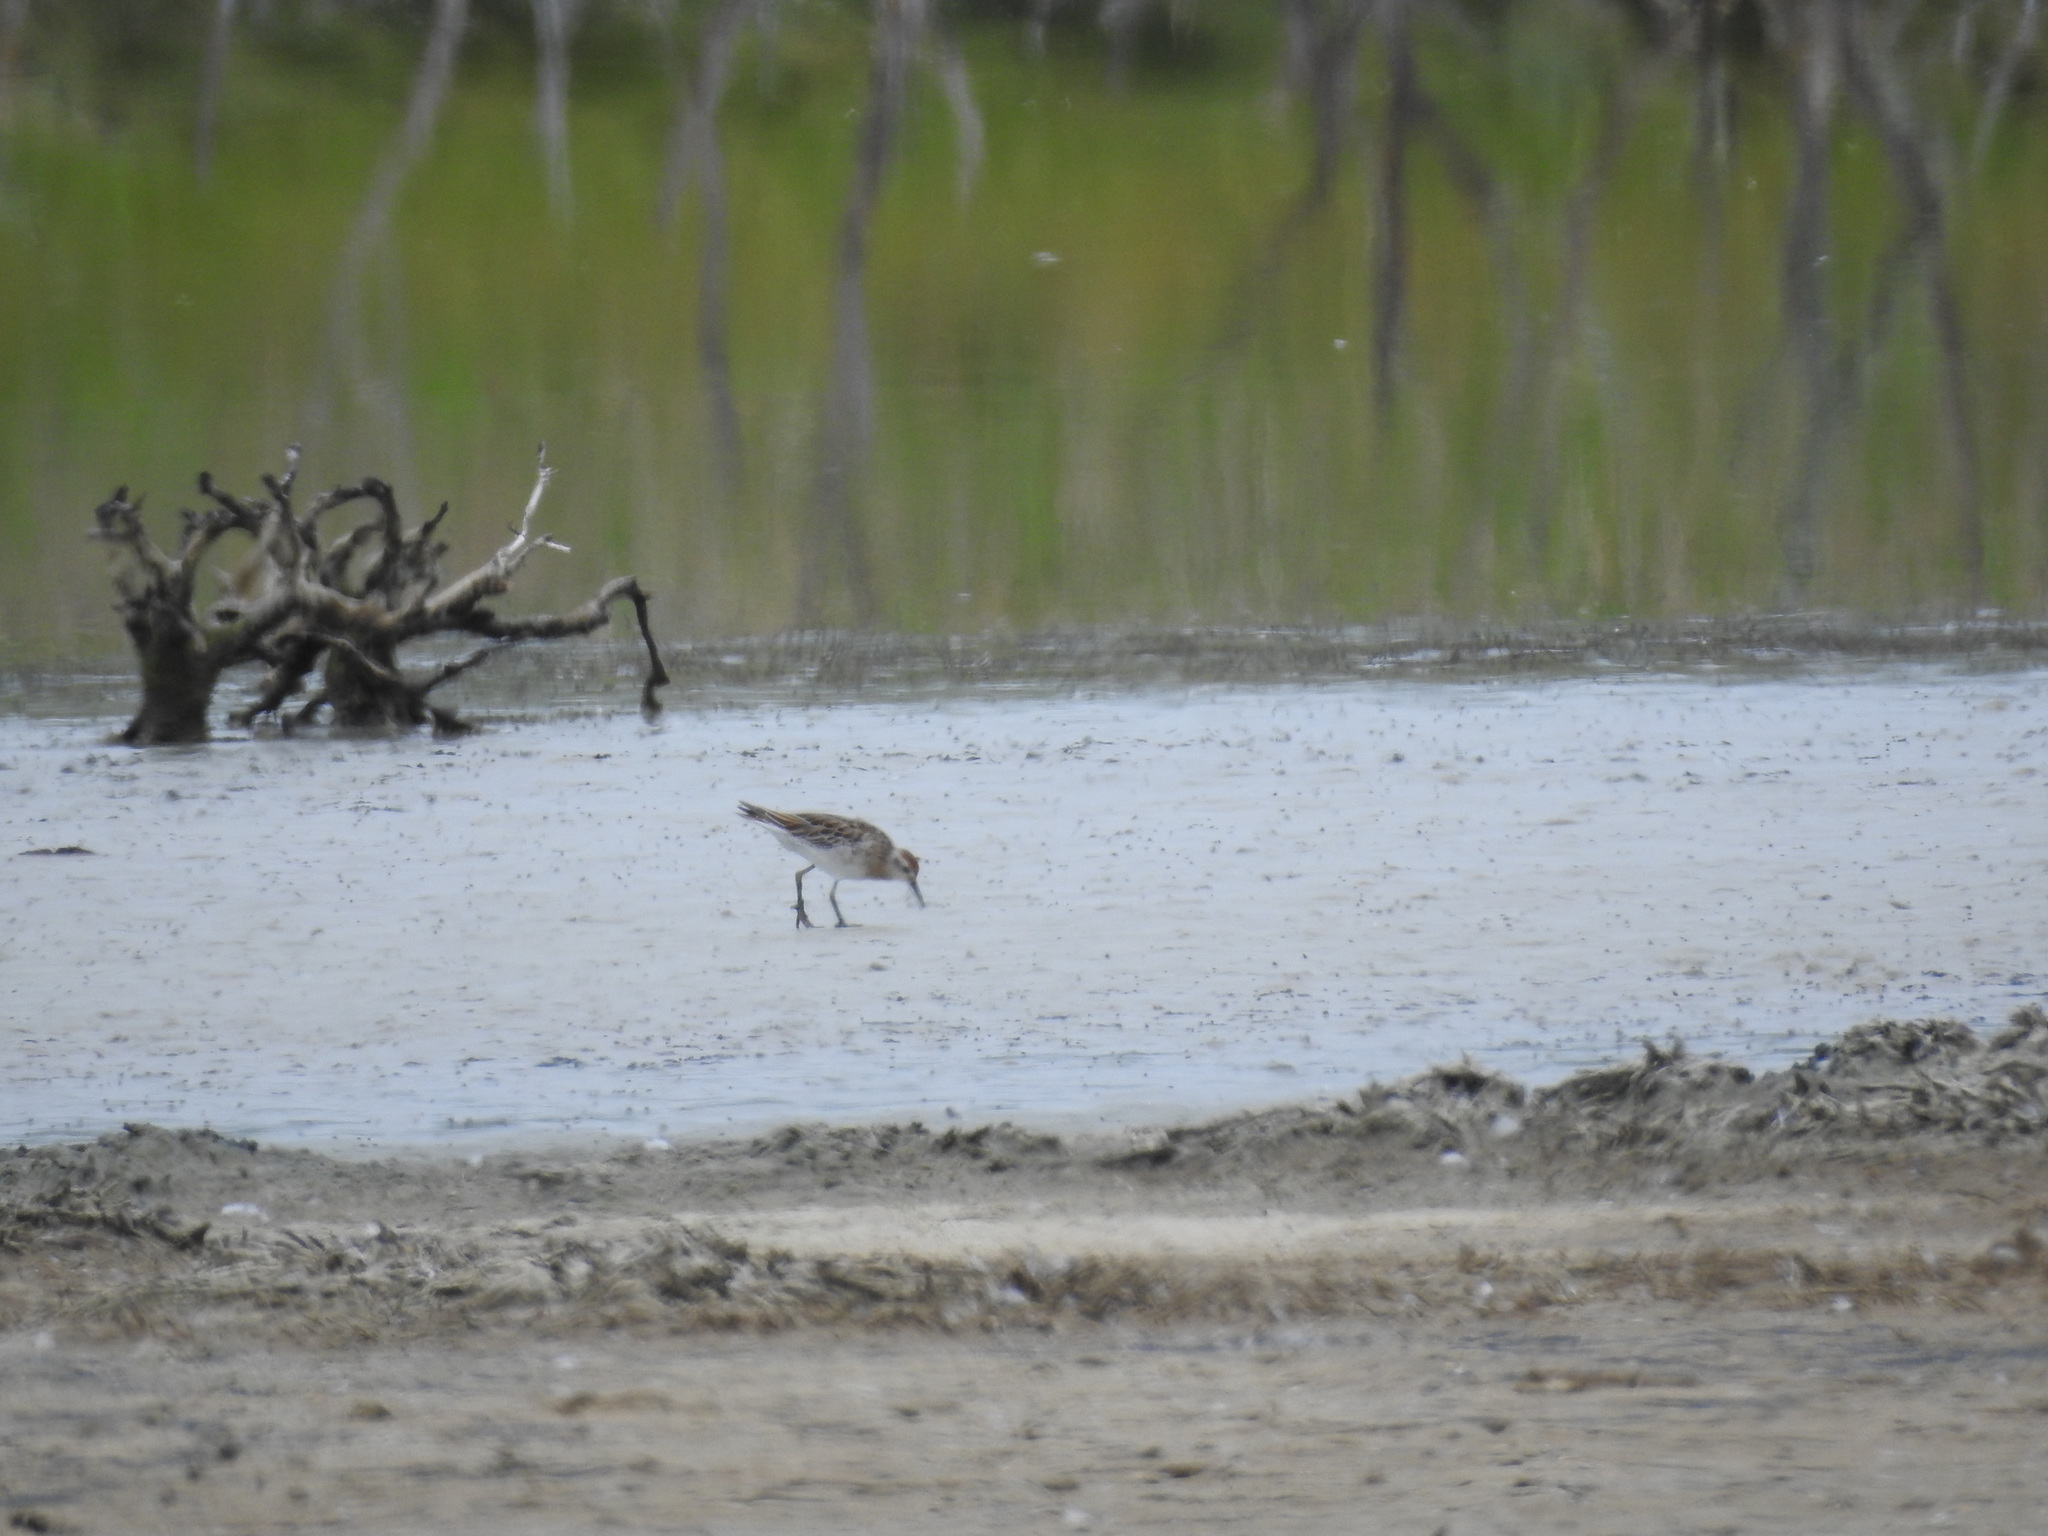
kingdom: Animalia
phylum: Chordata
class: Aves
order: Charadriiformes
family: Scolopacidae
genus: Calidris
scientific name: Calidris melanotos
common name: Pectoral sandpiper
